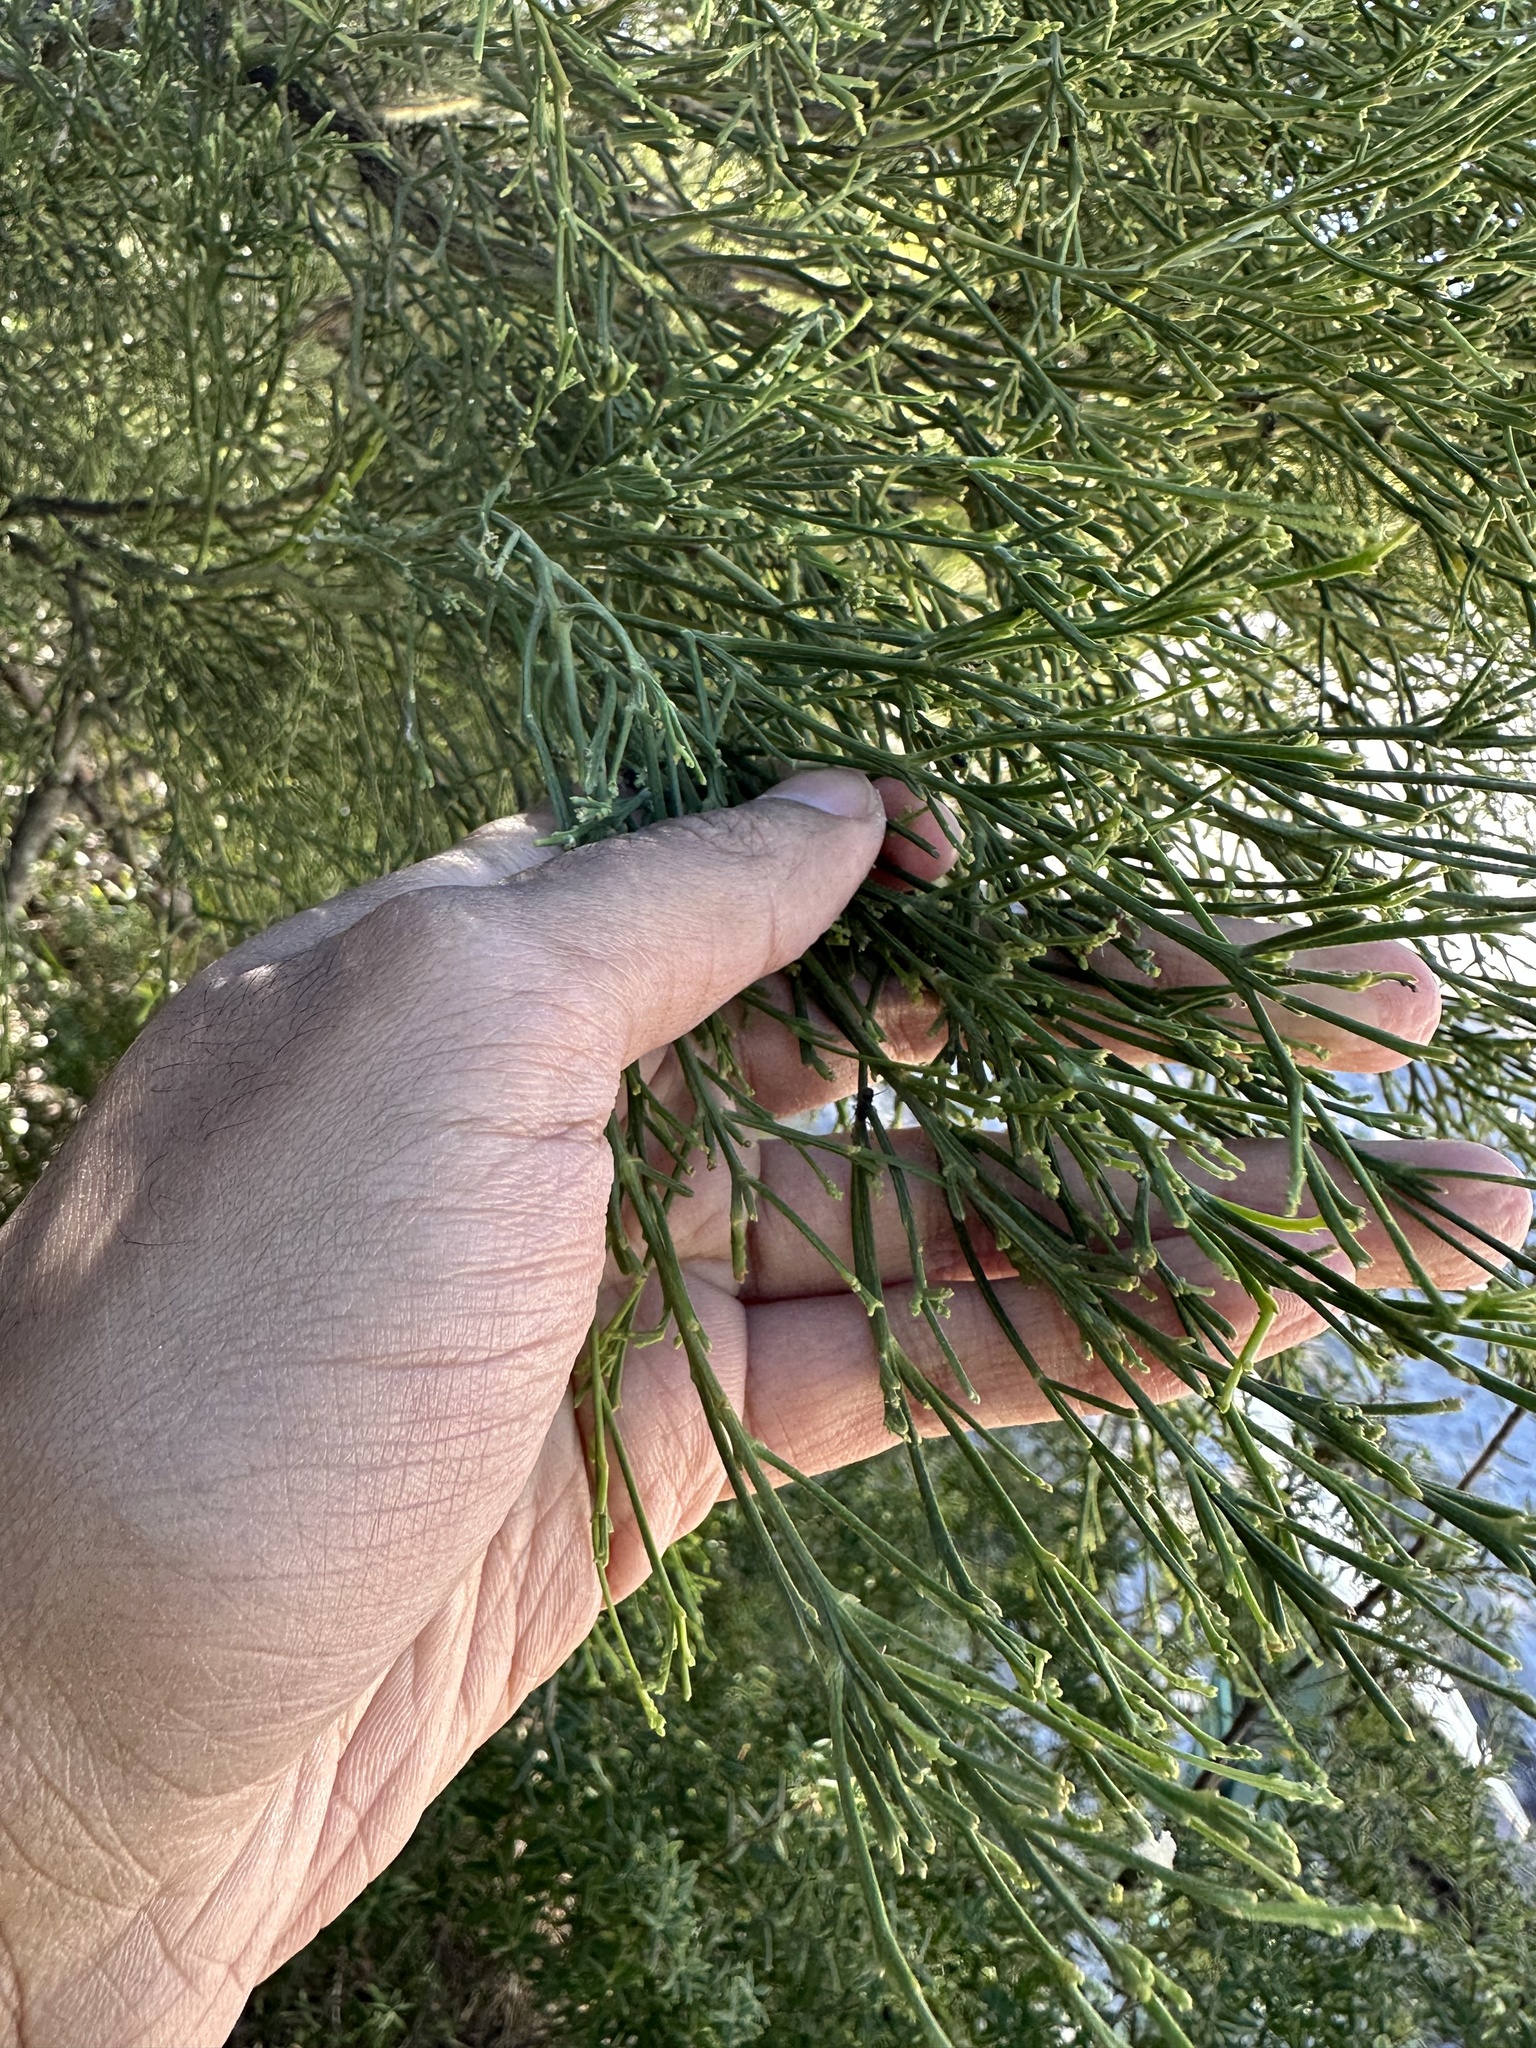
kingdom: Plantae
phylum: Tracheophyta
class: Magnoliopsida
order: Santalales
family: Santalaceae
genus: Exocarpos
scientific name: Exocarpos cupressiformis
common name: Cherry ballart
